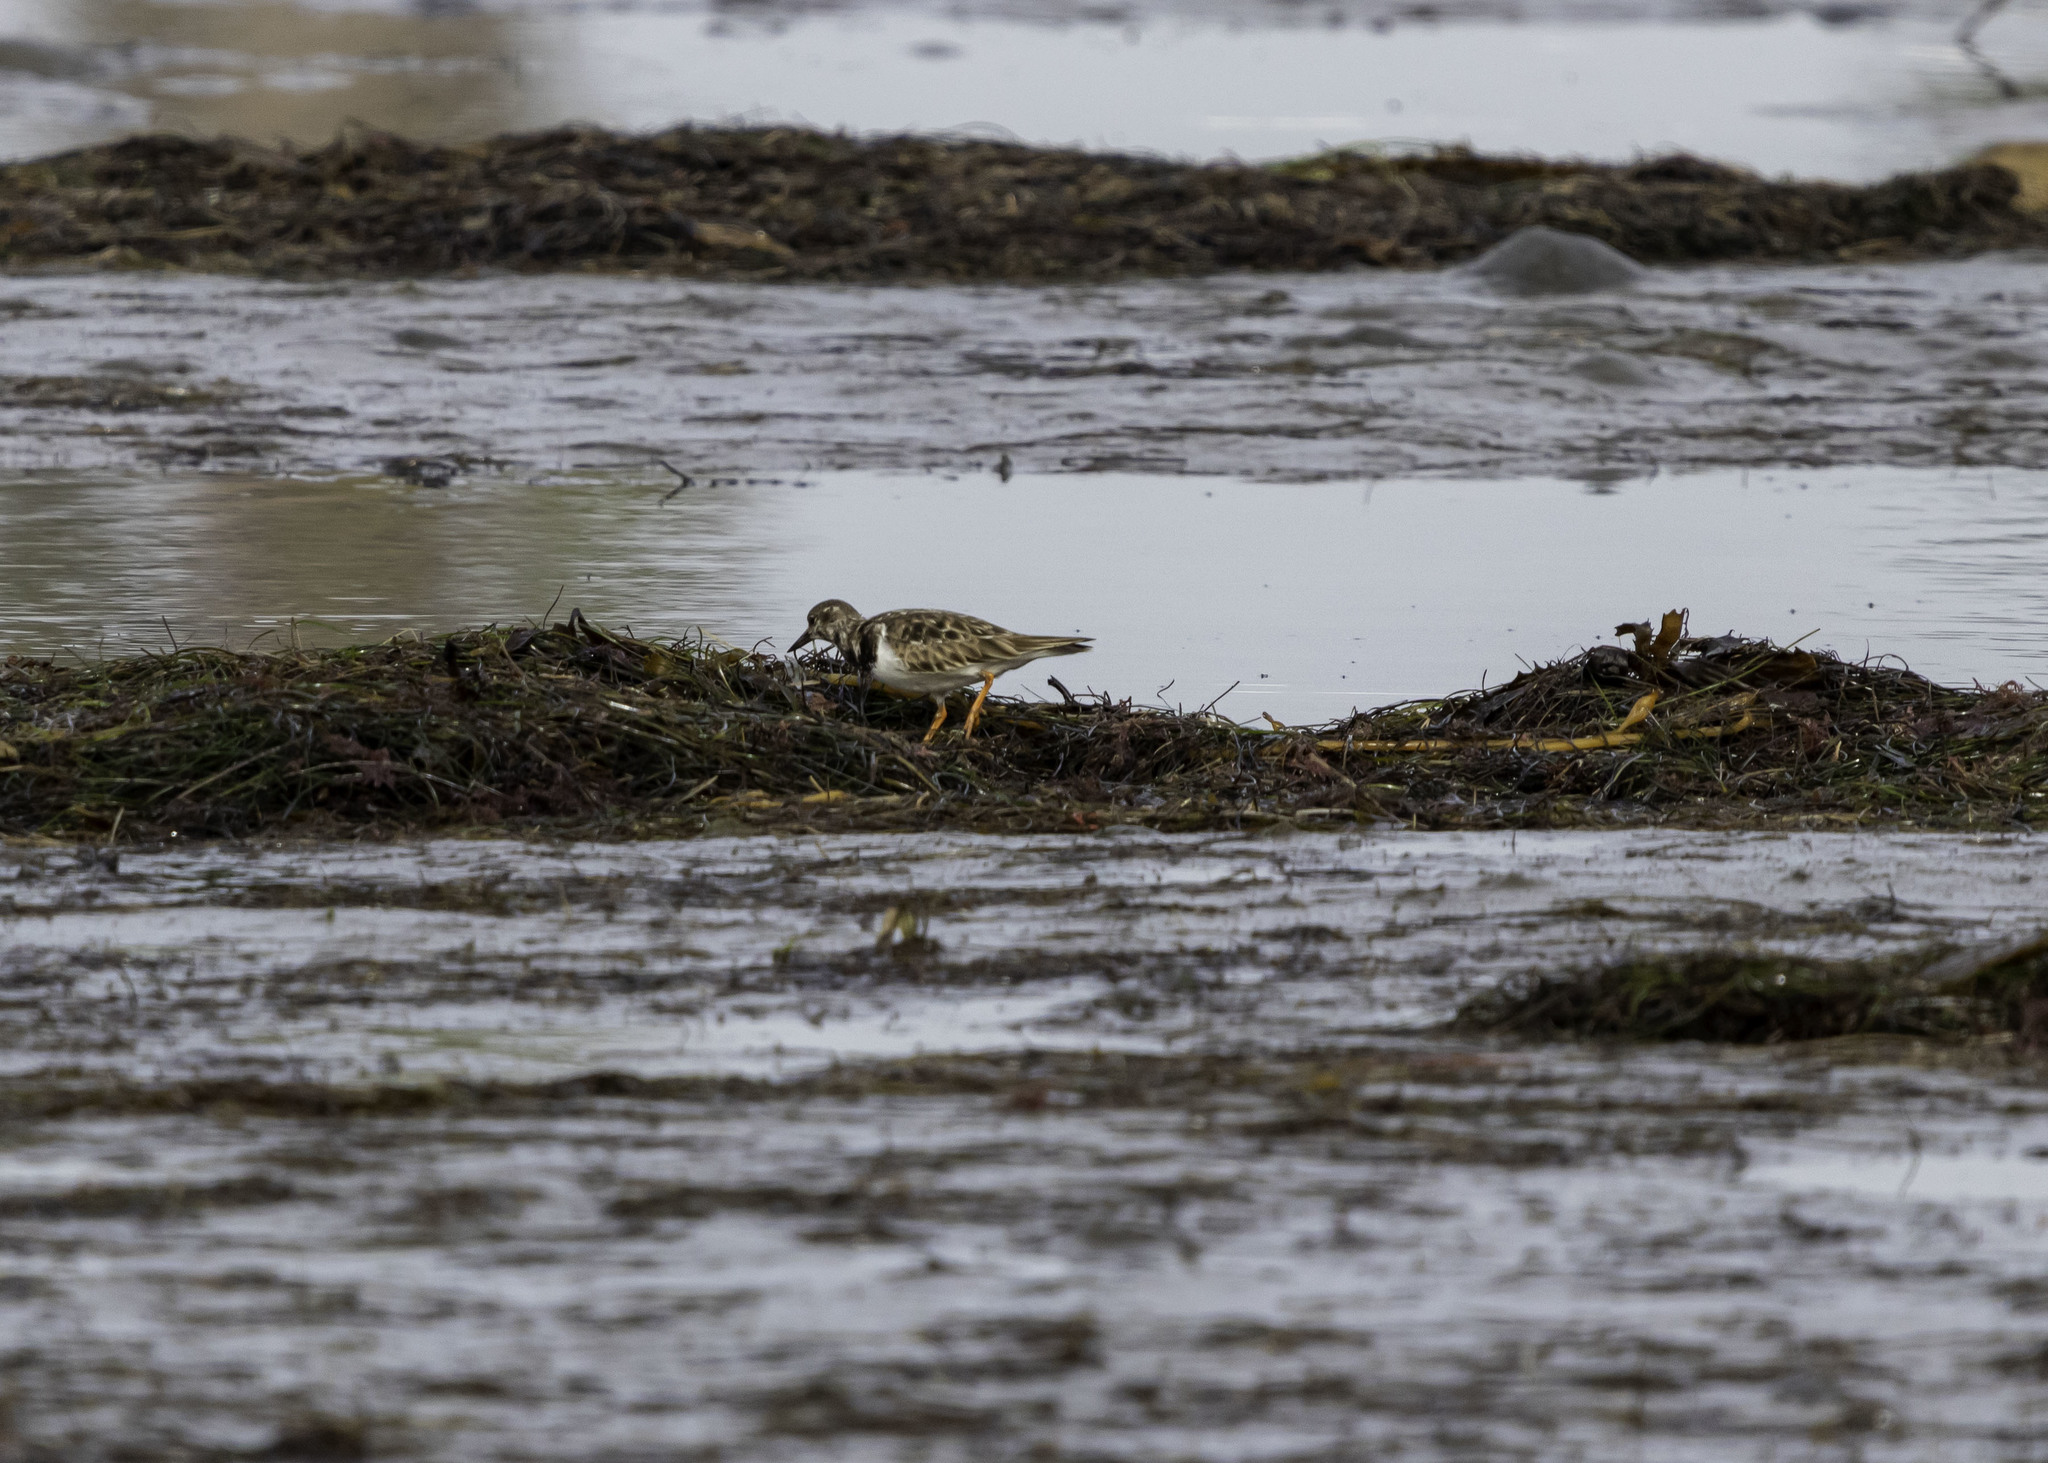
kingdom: Animalia
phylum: Chordata
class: Aves
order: Charadriiformes
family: Scolopacidae
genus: Arenaria
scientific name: Arenaria interpres
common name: Ruddy turnstone
